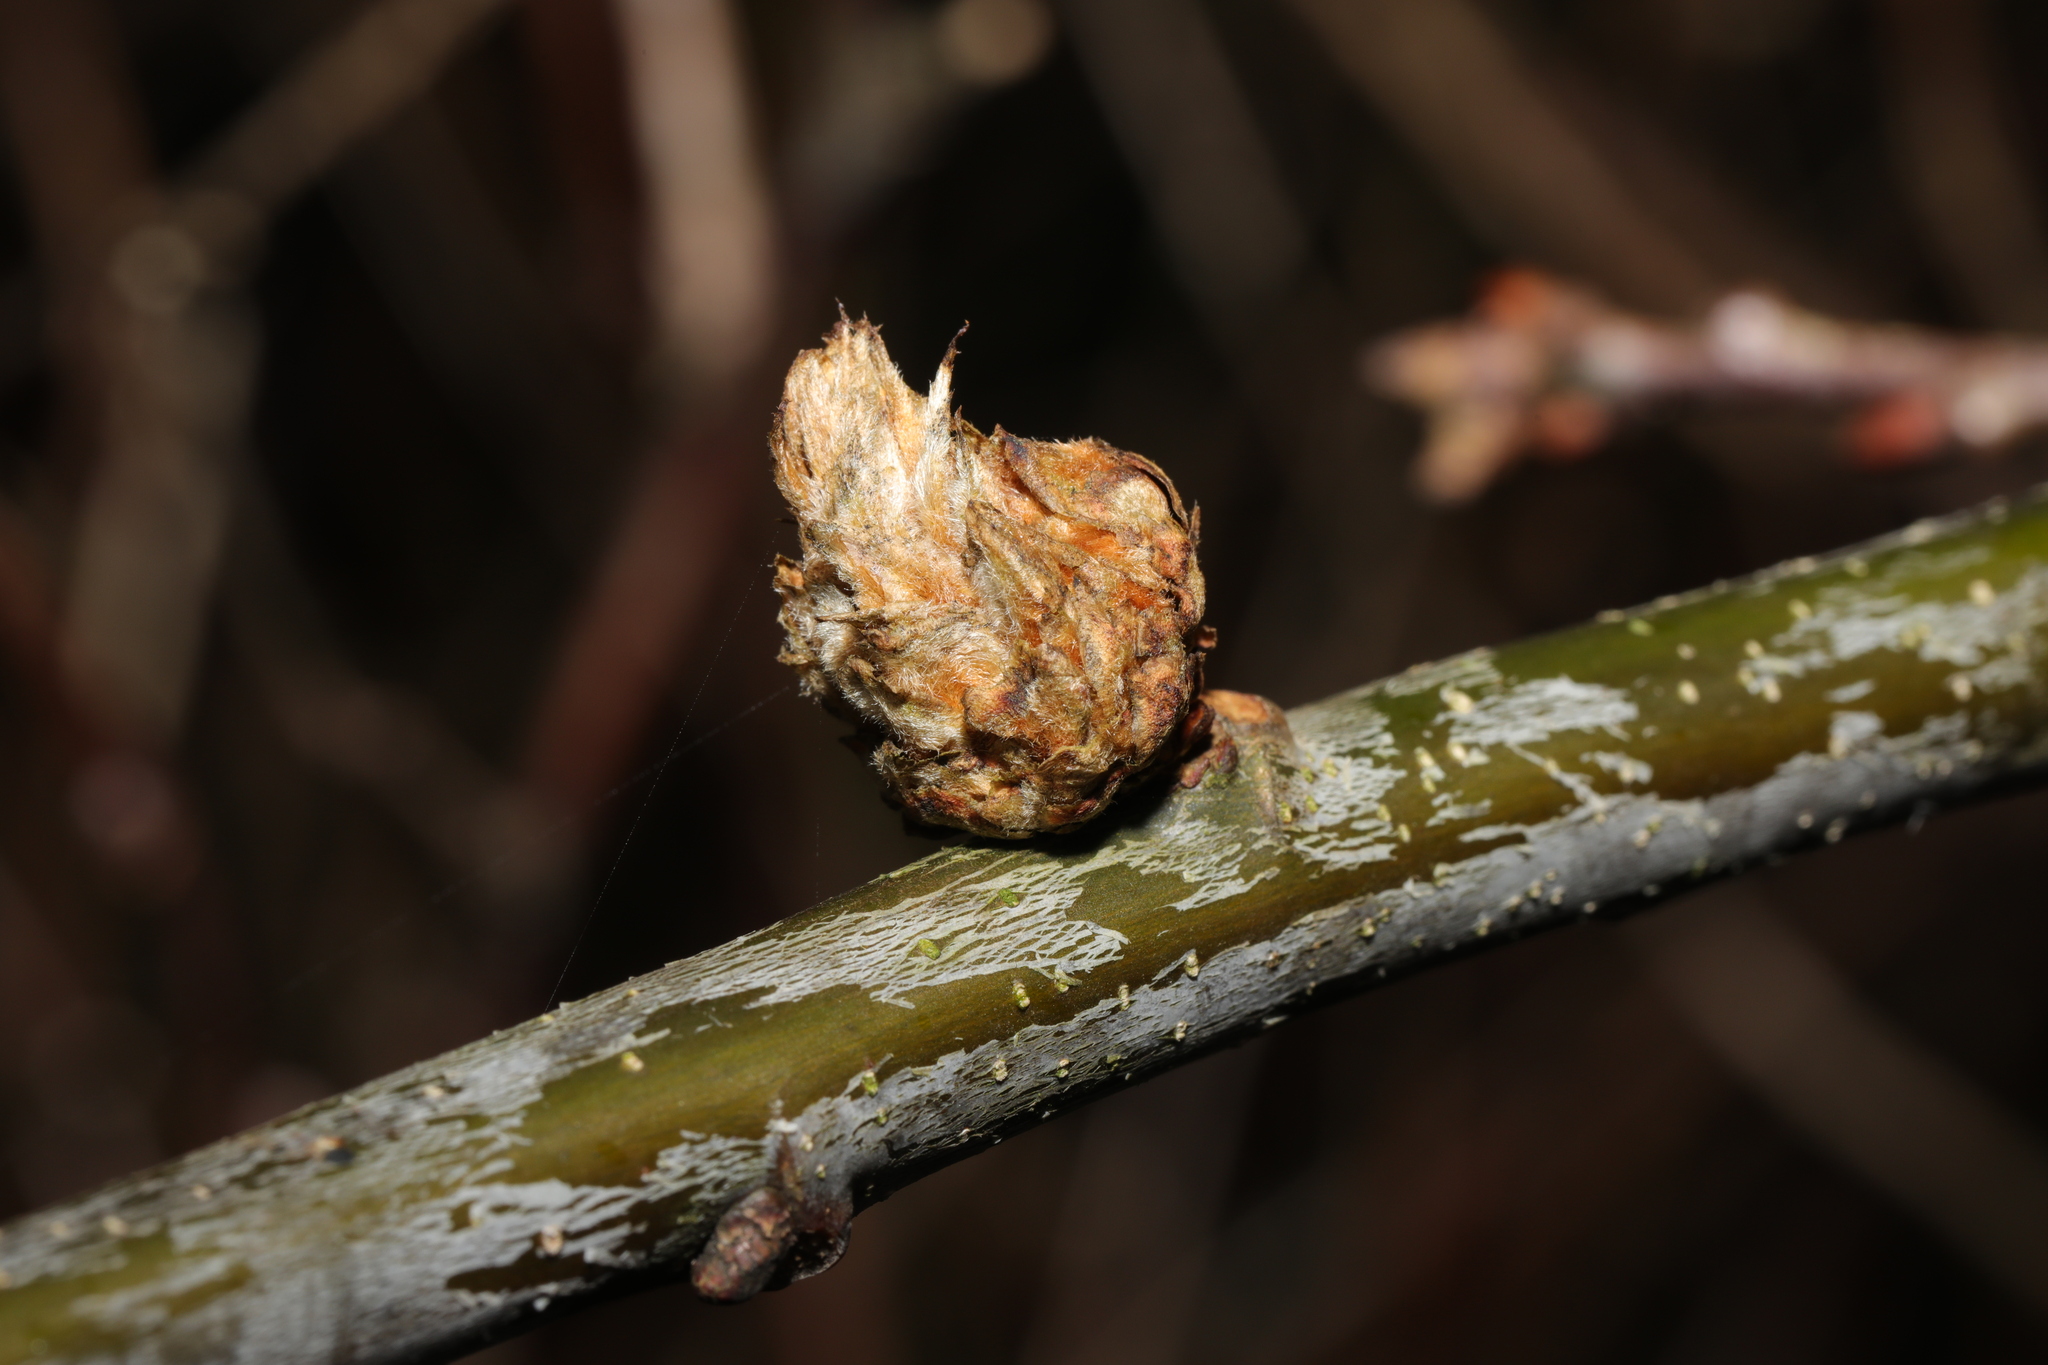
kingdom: Animalia
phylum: Arthropoda
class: Insecta
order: Hymenoptera
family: Cynipidae
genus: Andricus
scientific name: Andricus foecundatrix
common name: Artichoke gall
